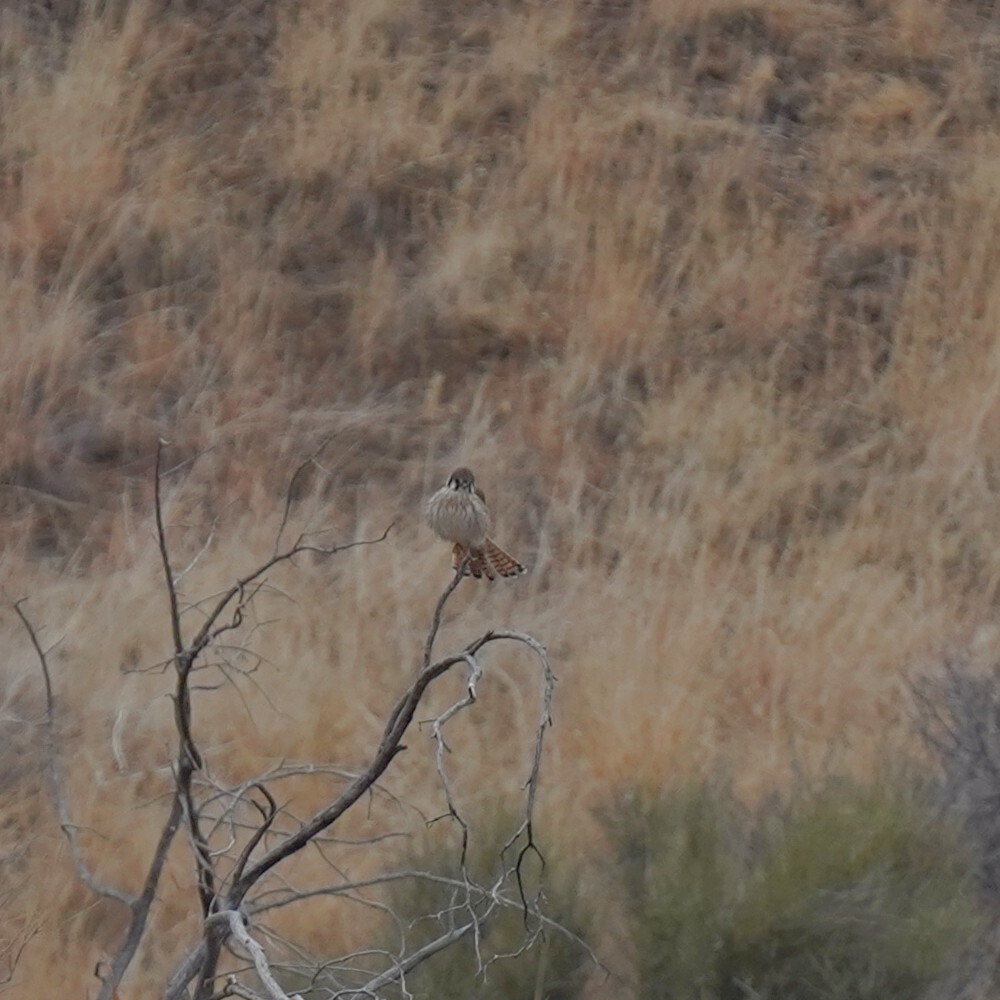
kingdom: Animalia
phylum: Chordata
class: Aves
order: Falconiformes
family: Falconidae
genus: Falco
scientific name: Falco sparverius
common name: American kestrel
